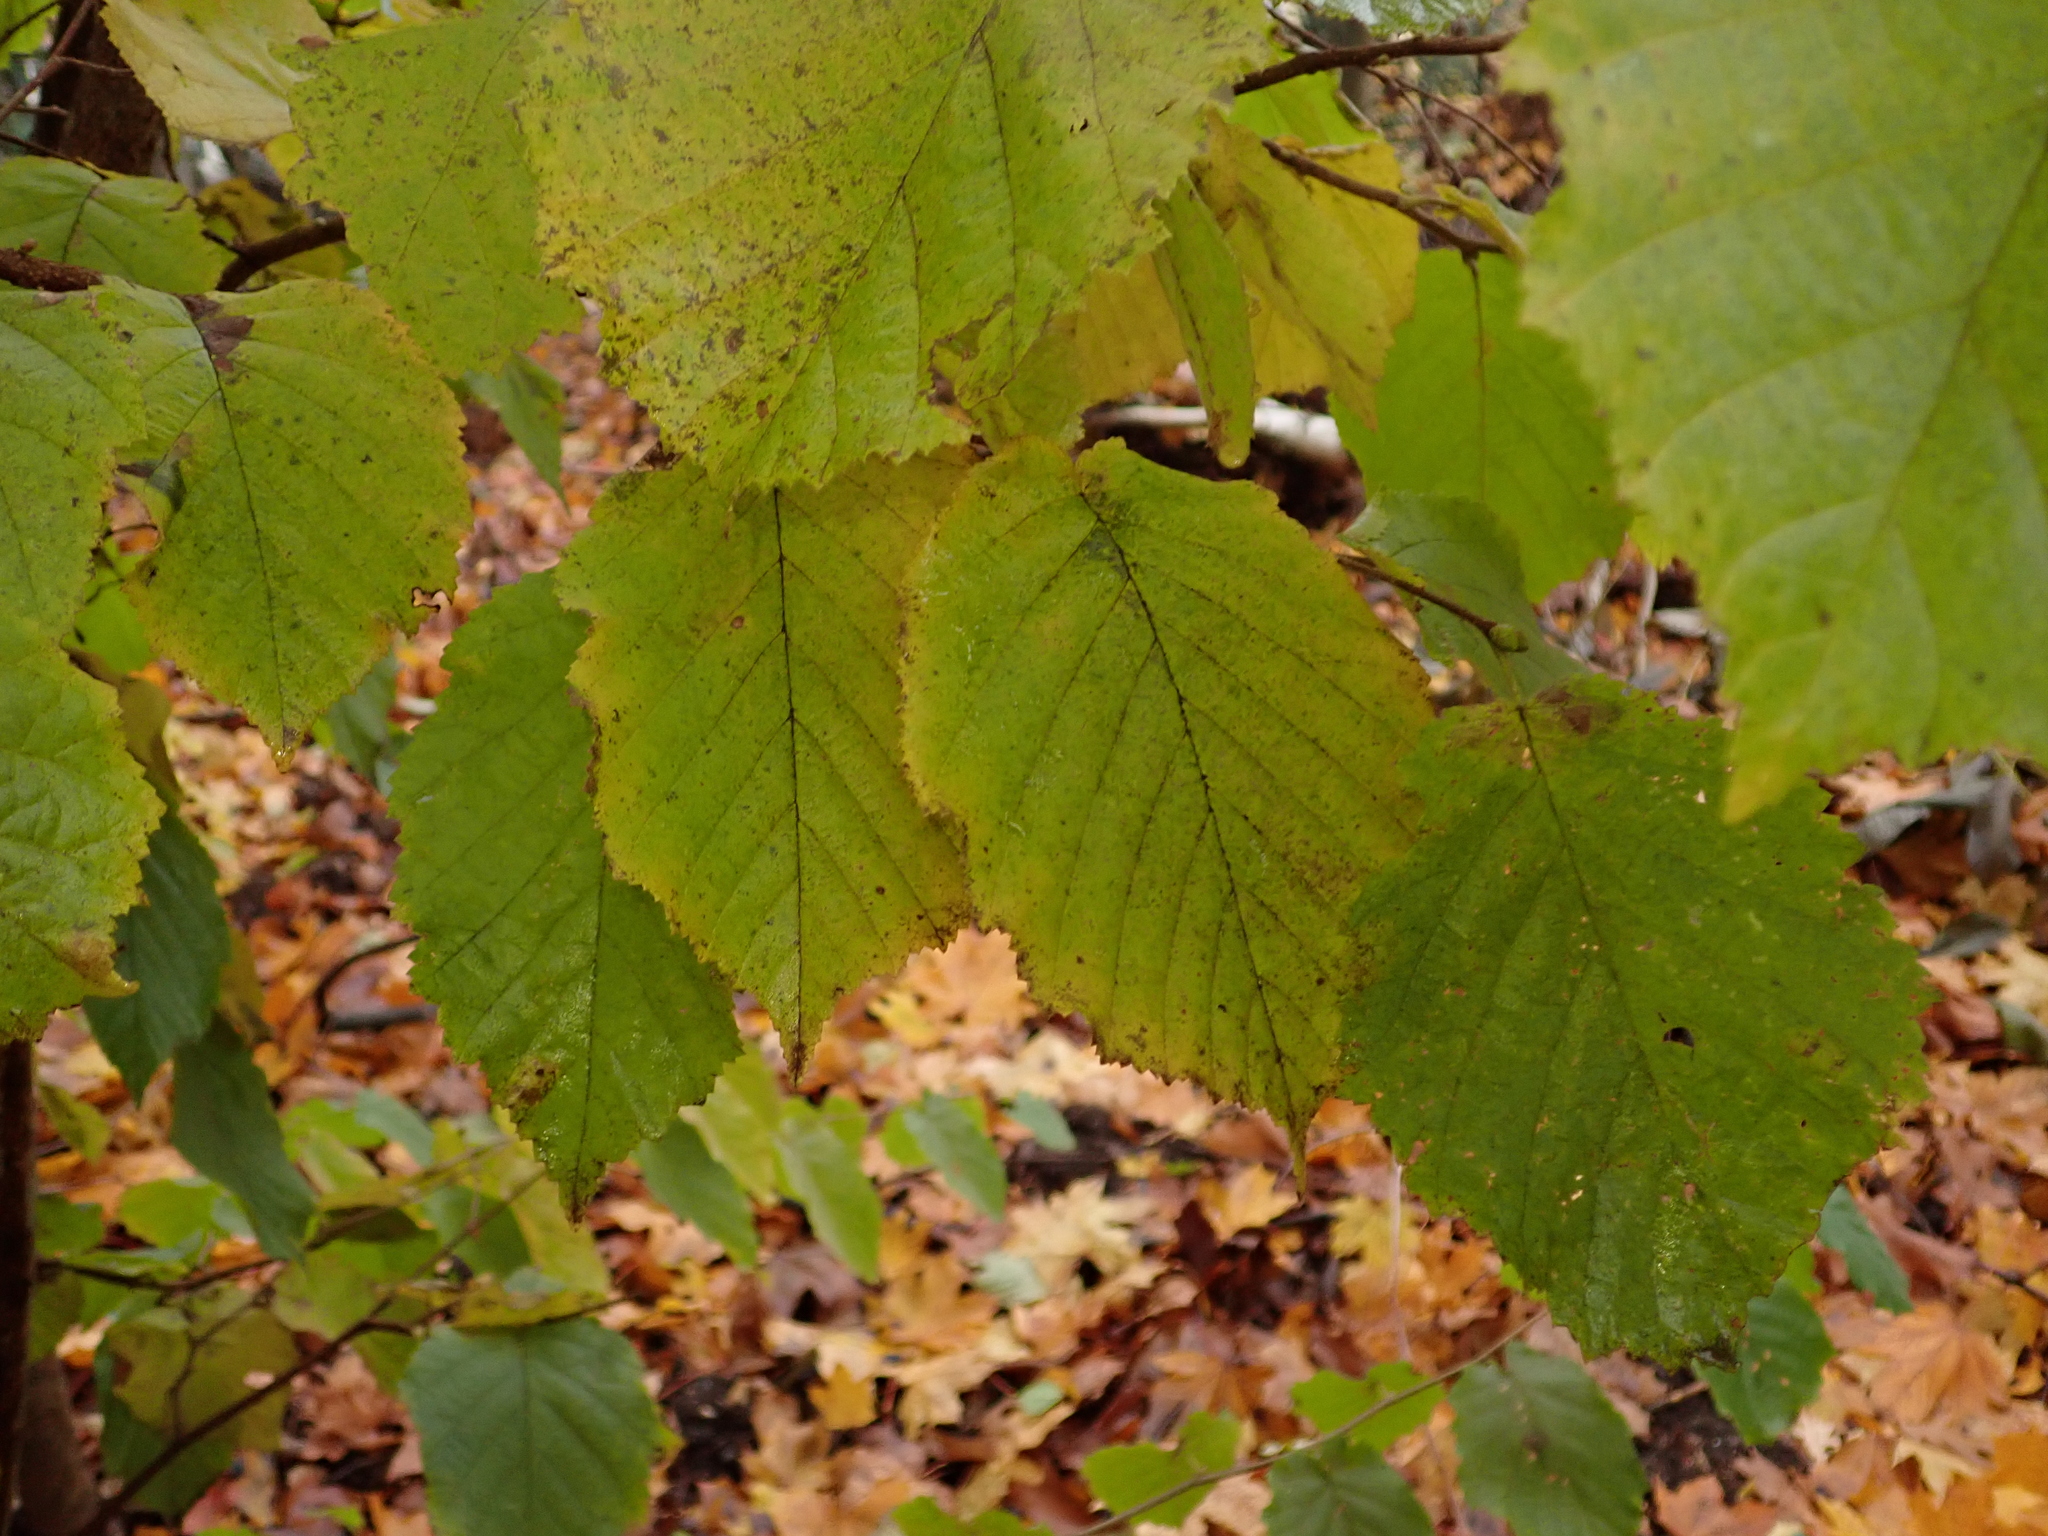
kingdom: Plantae
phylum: Tracheophyta
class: Magnoliopsida
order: Fagales
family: Betulaceae
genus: Corylus
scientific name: Corylus avellana
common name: European hazel
